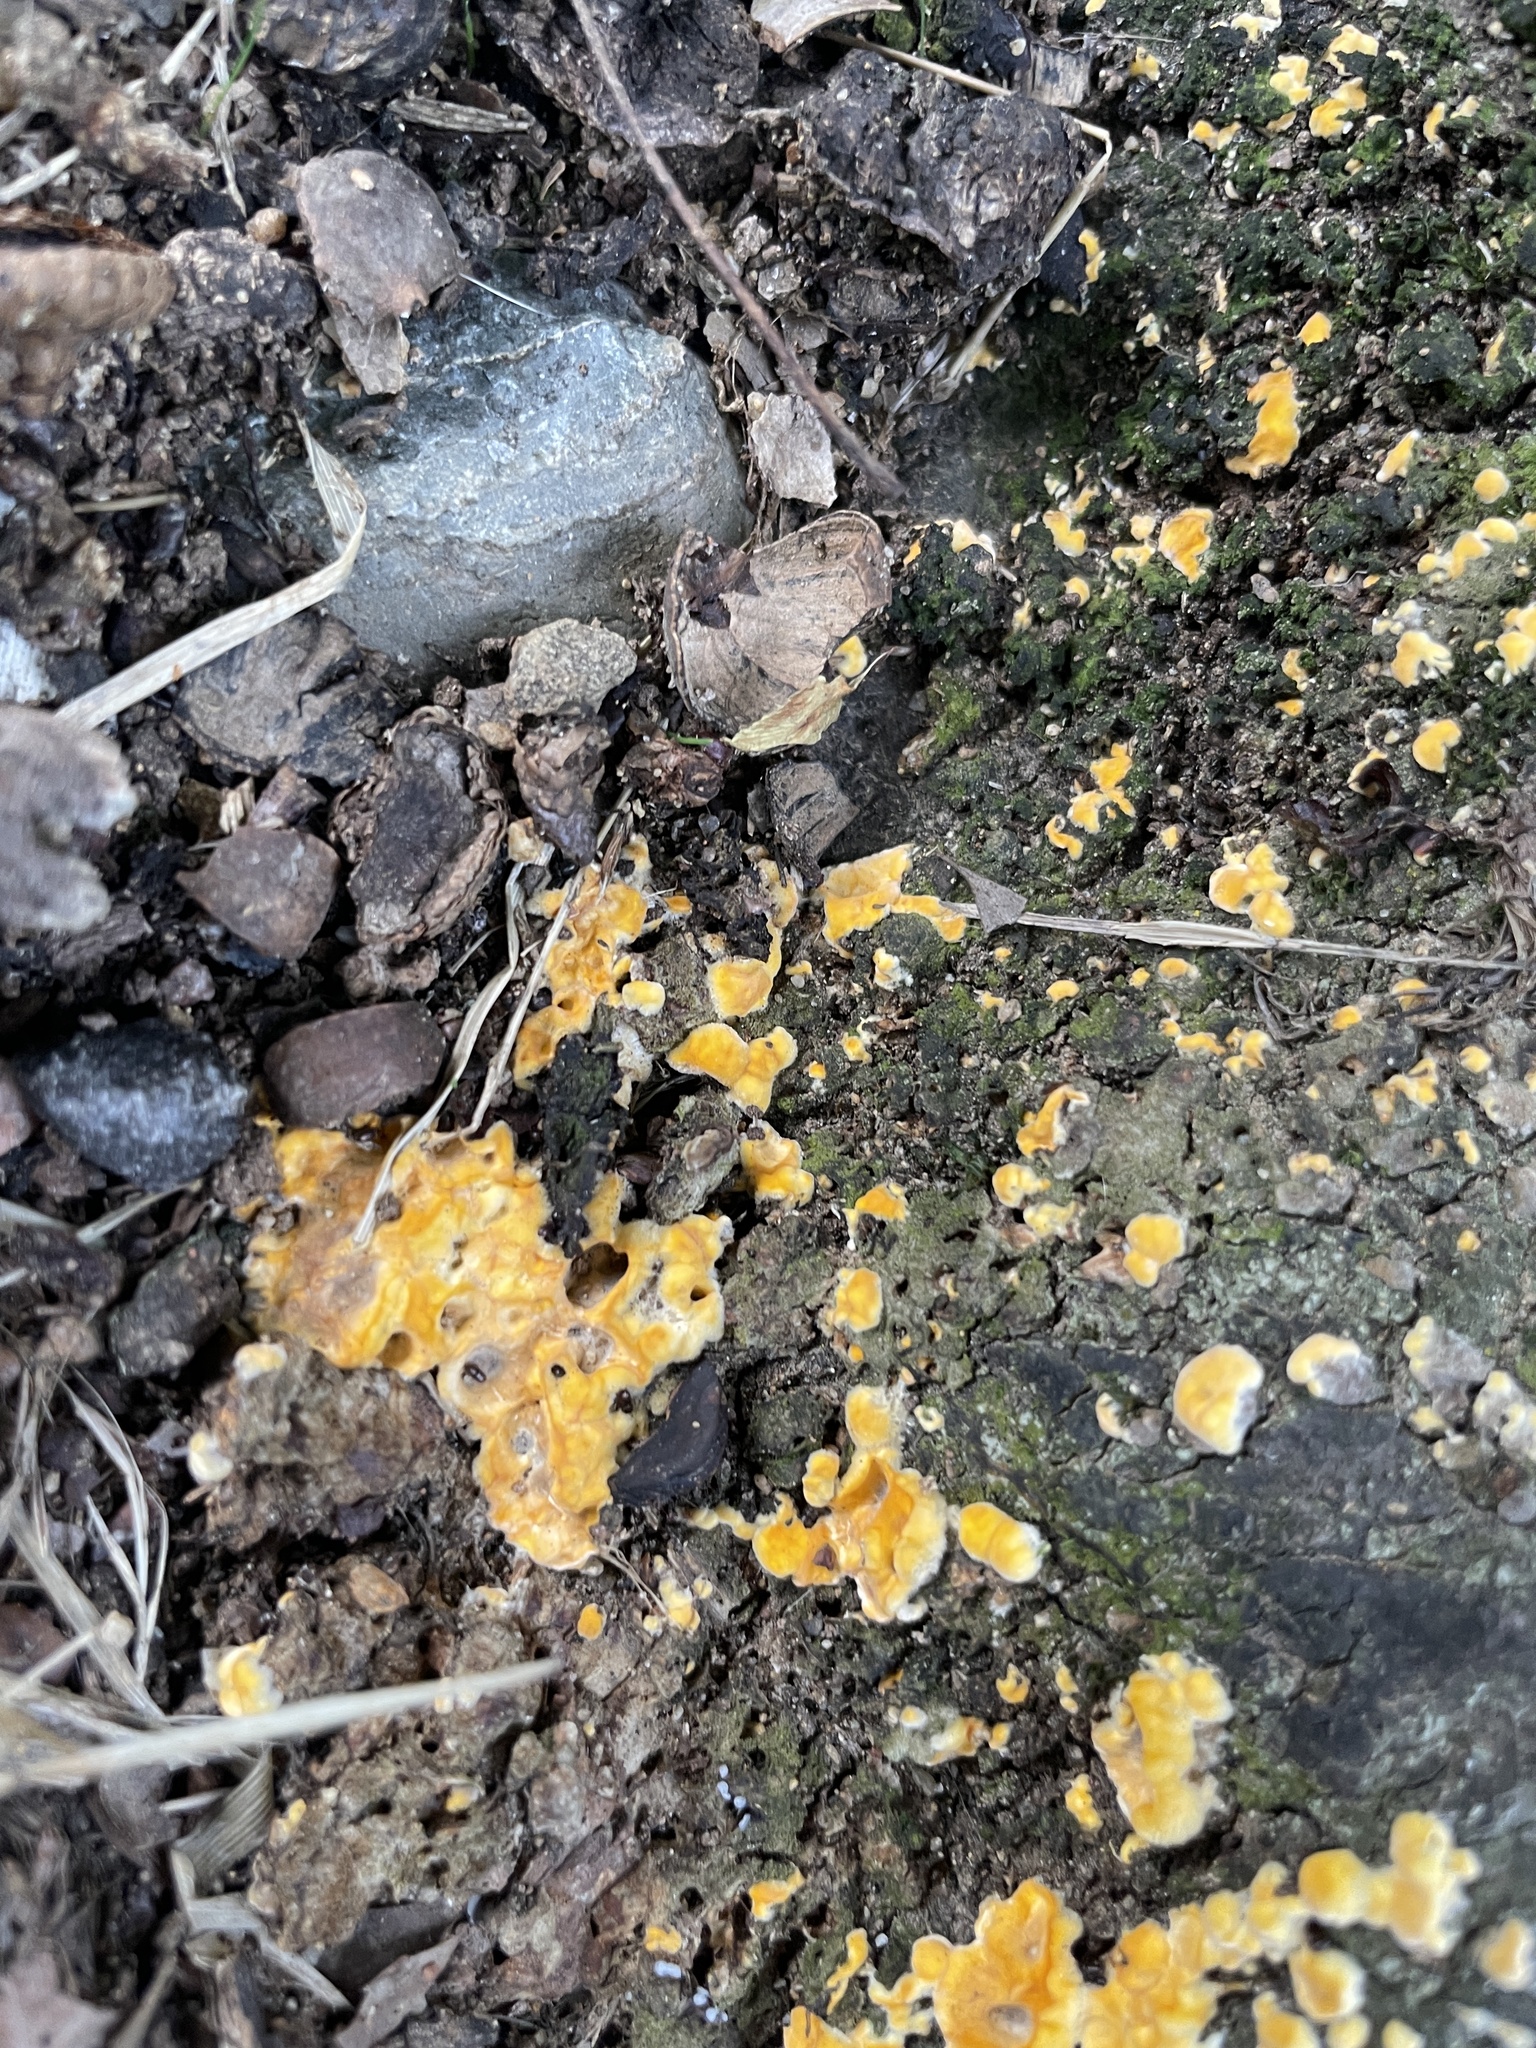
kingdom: Fungi
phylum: Ascomycota
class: Sordariomycetes
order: Hypocreales
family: Hypocreaceae
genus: Trichoderma
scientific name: Trichoderma sulphureum
